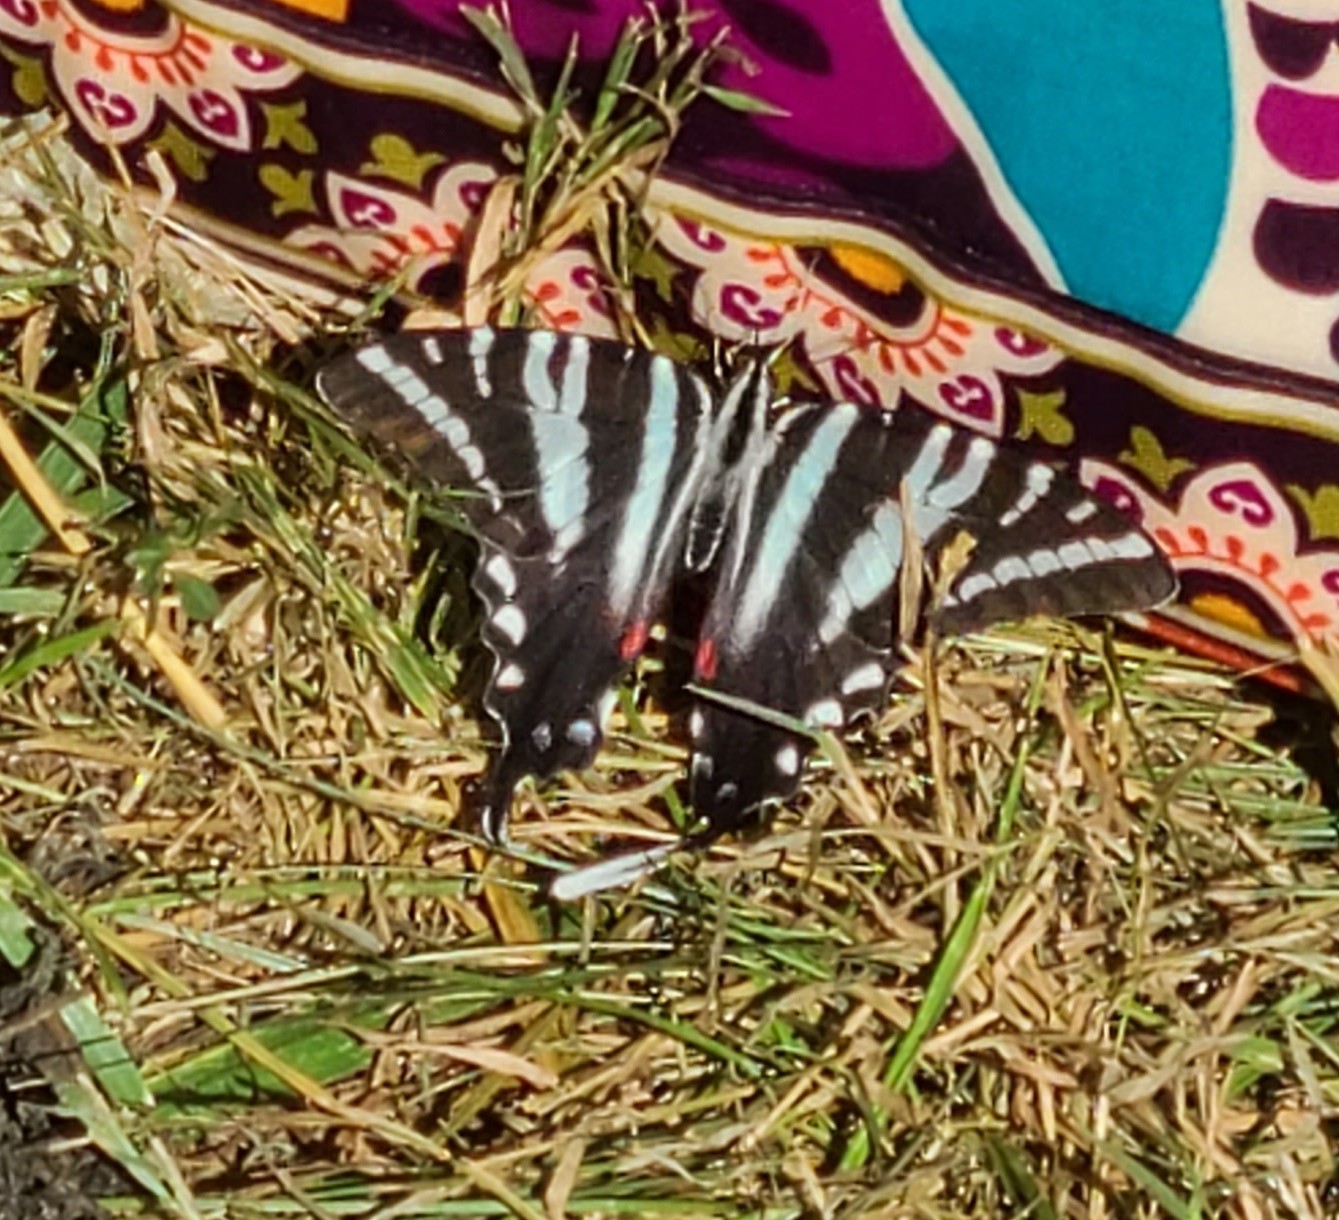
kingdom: Animalia
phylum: Arthropoda
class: Insecta
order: Lepidoptera
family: Papilionidae
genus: Protographium
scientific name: Protographium marcellus
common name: Zebra swallowtail
